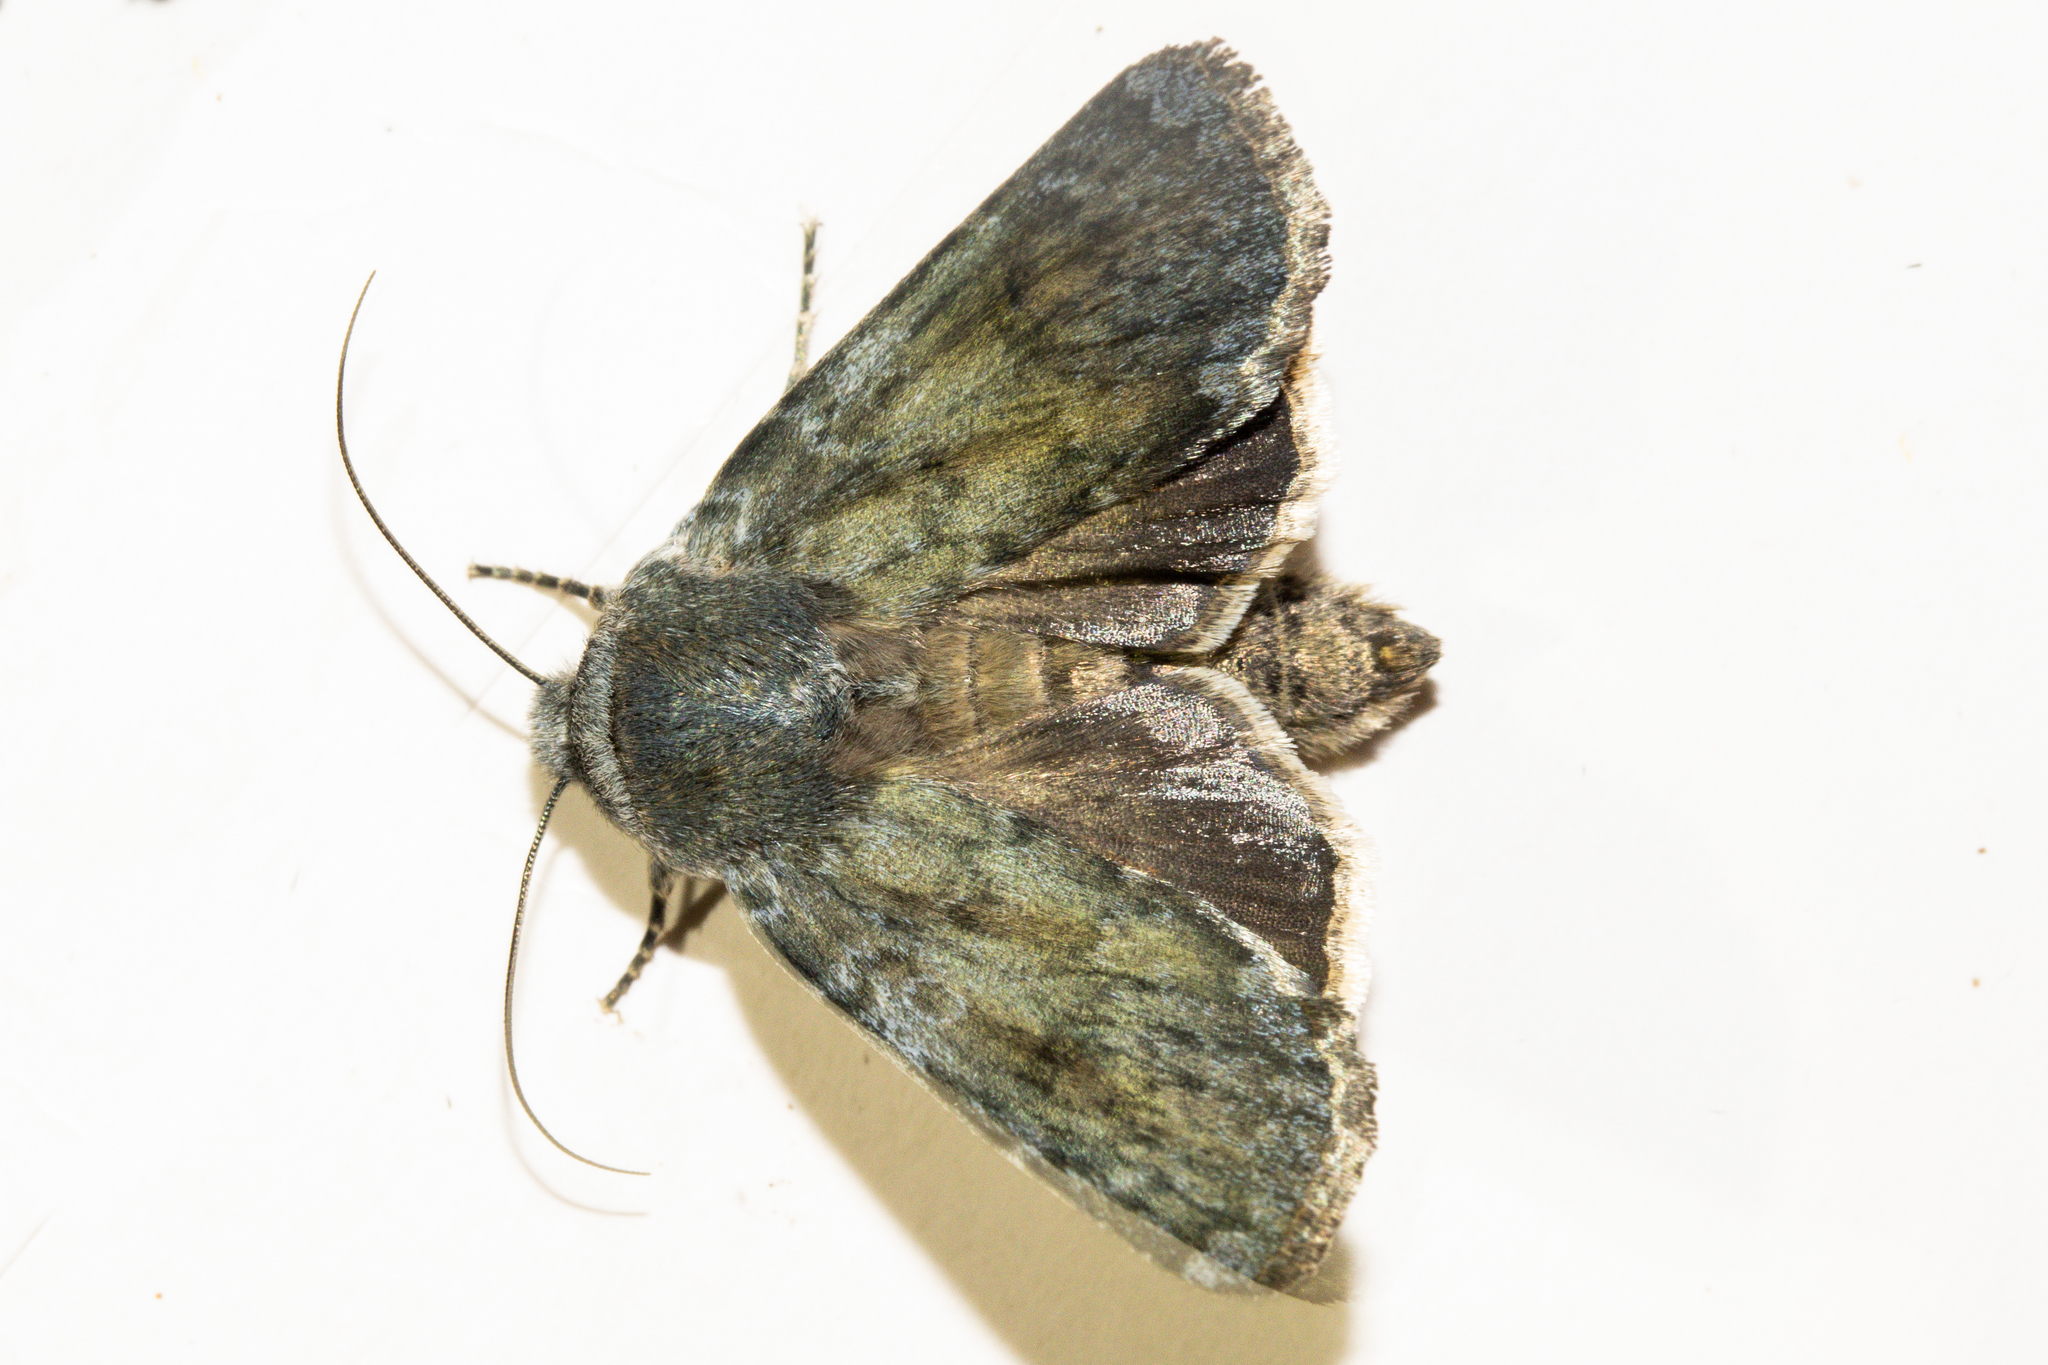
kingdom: Animalia
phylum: Arthropoda
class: Insecta
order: Lepidoptera
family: Noctuidae
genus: Ichneutica
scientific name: Ichneutica
